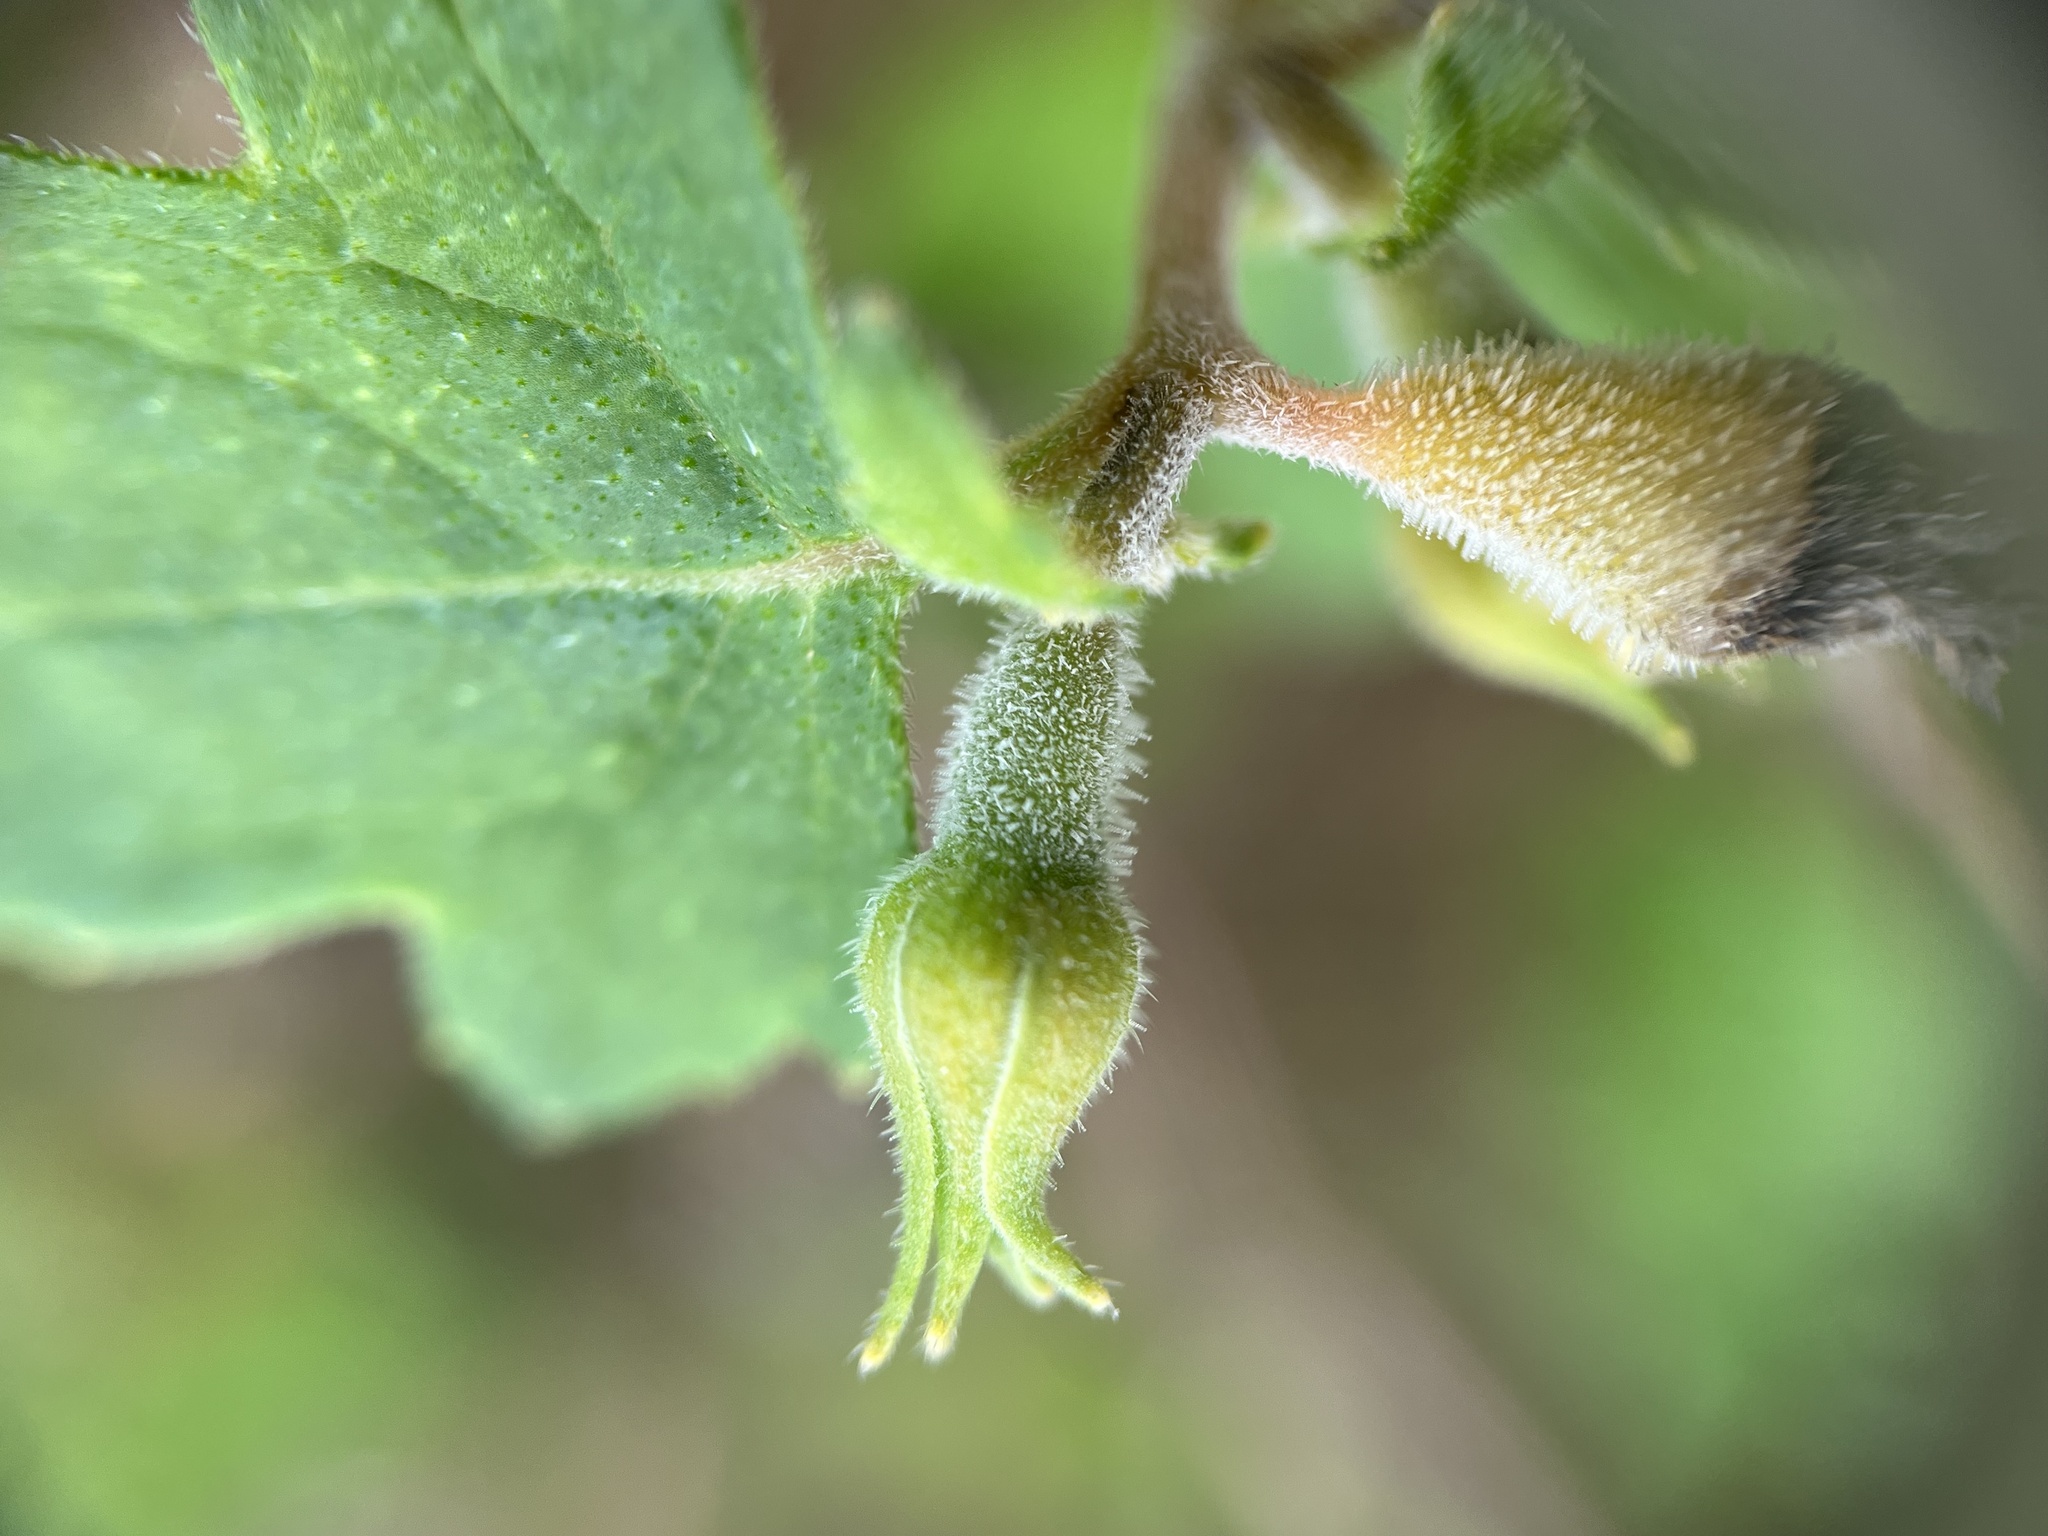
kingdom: Plantae
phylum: Tracheophyta
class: Magnoliopsida
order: Cornales
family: Loasaceae
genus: Mentzelia
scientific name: Mentzelia floridana
